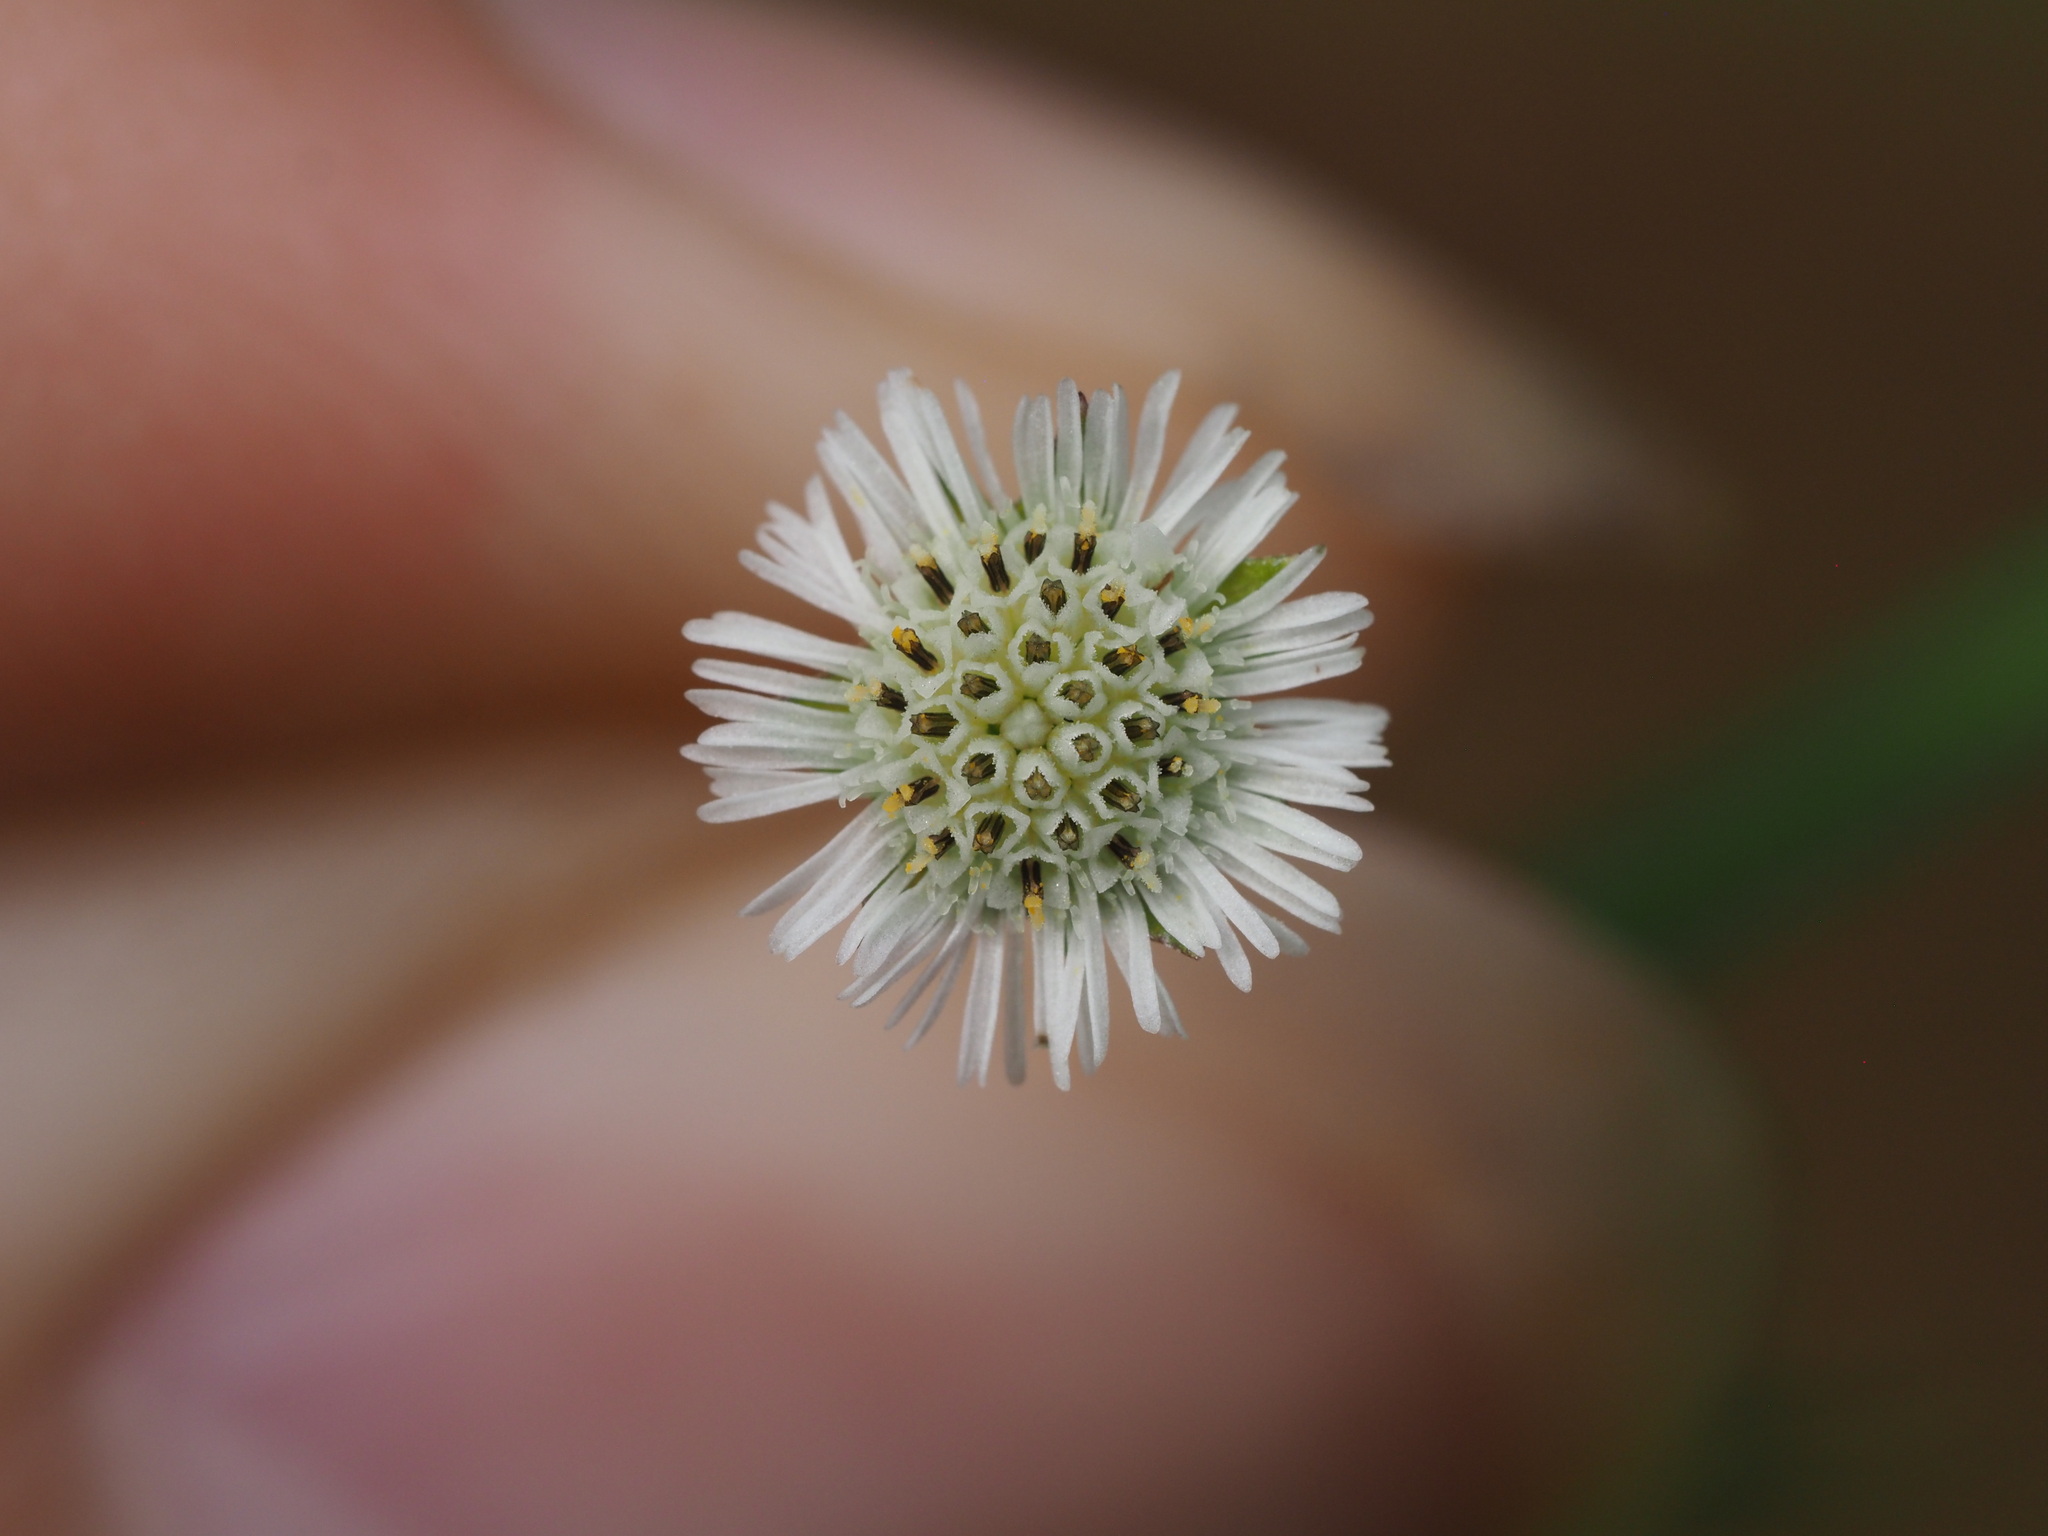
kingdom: Plantae
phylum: Tracheophyta
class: Magnoliopsida
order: Asterales
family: Asteraceae
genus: Eclipta
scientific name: Eclipta prostrata
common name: False daisy
